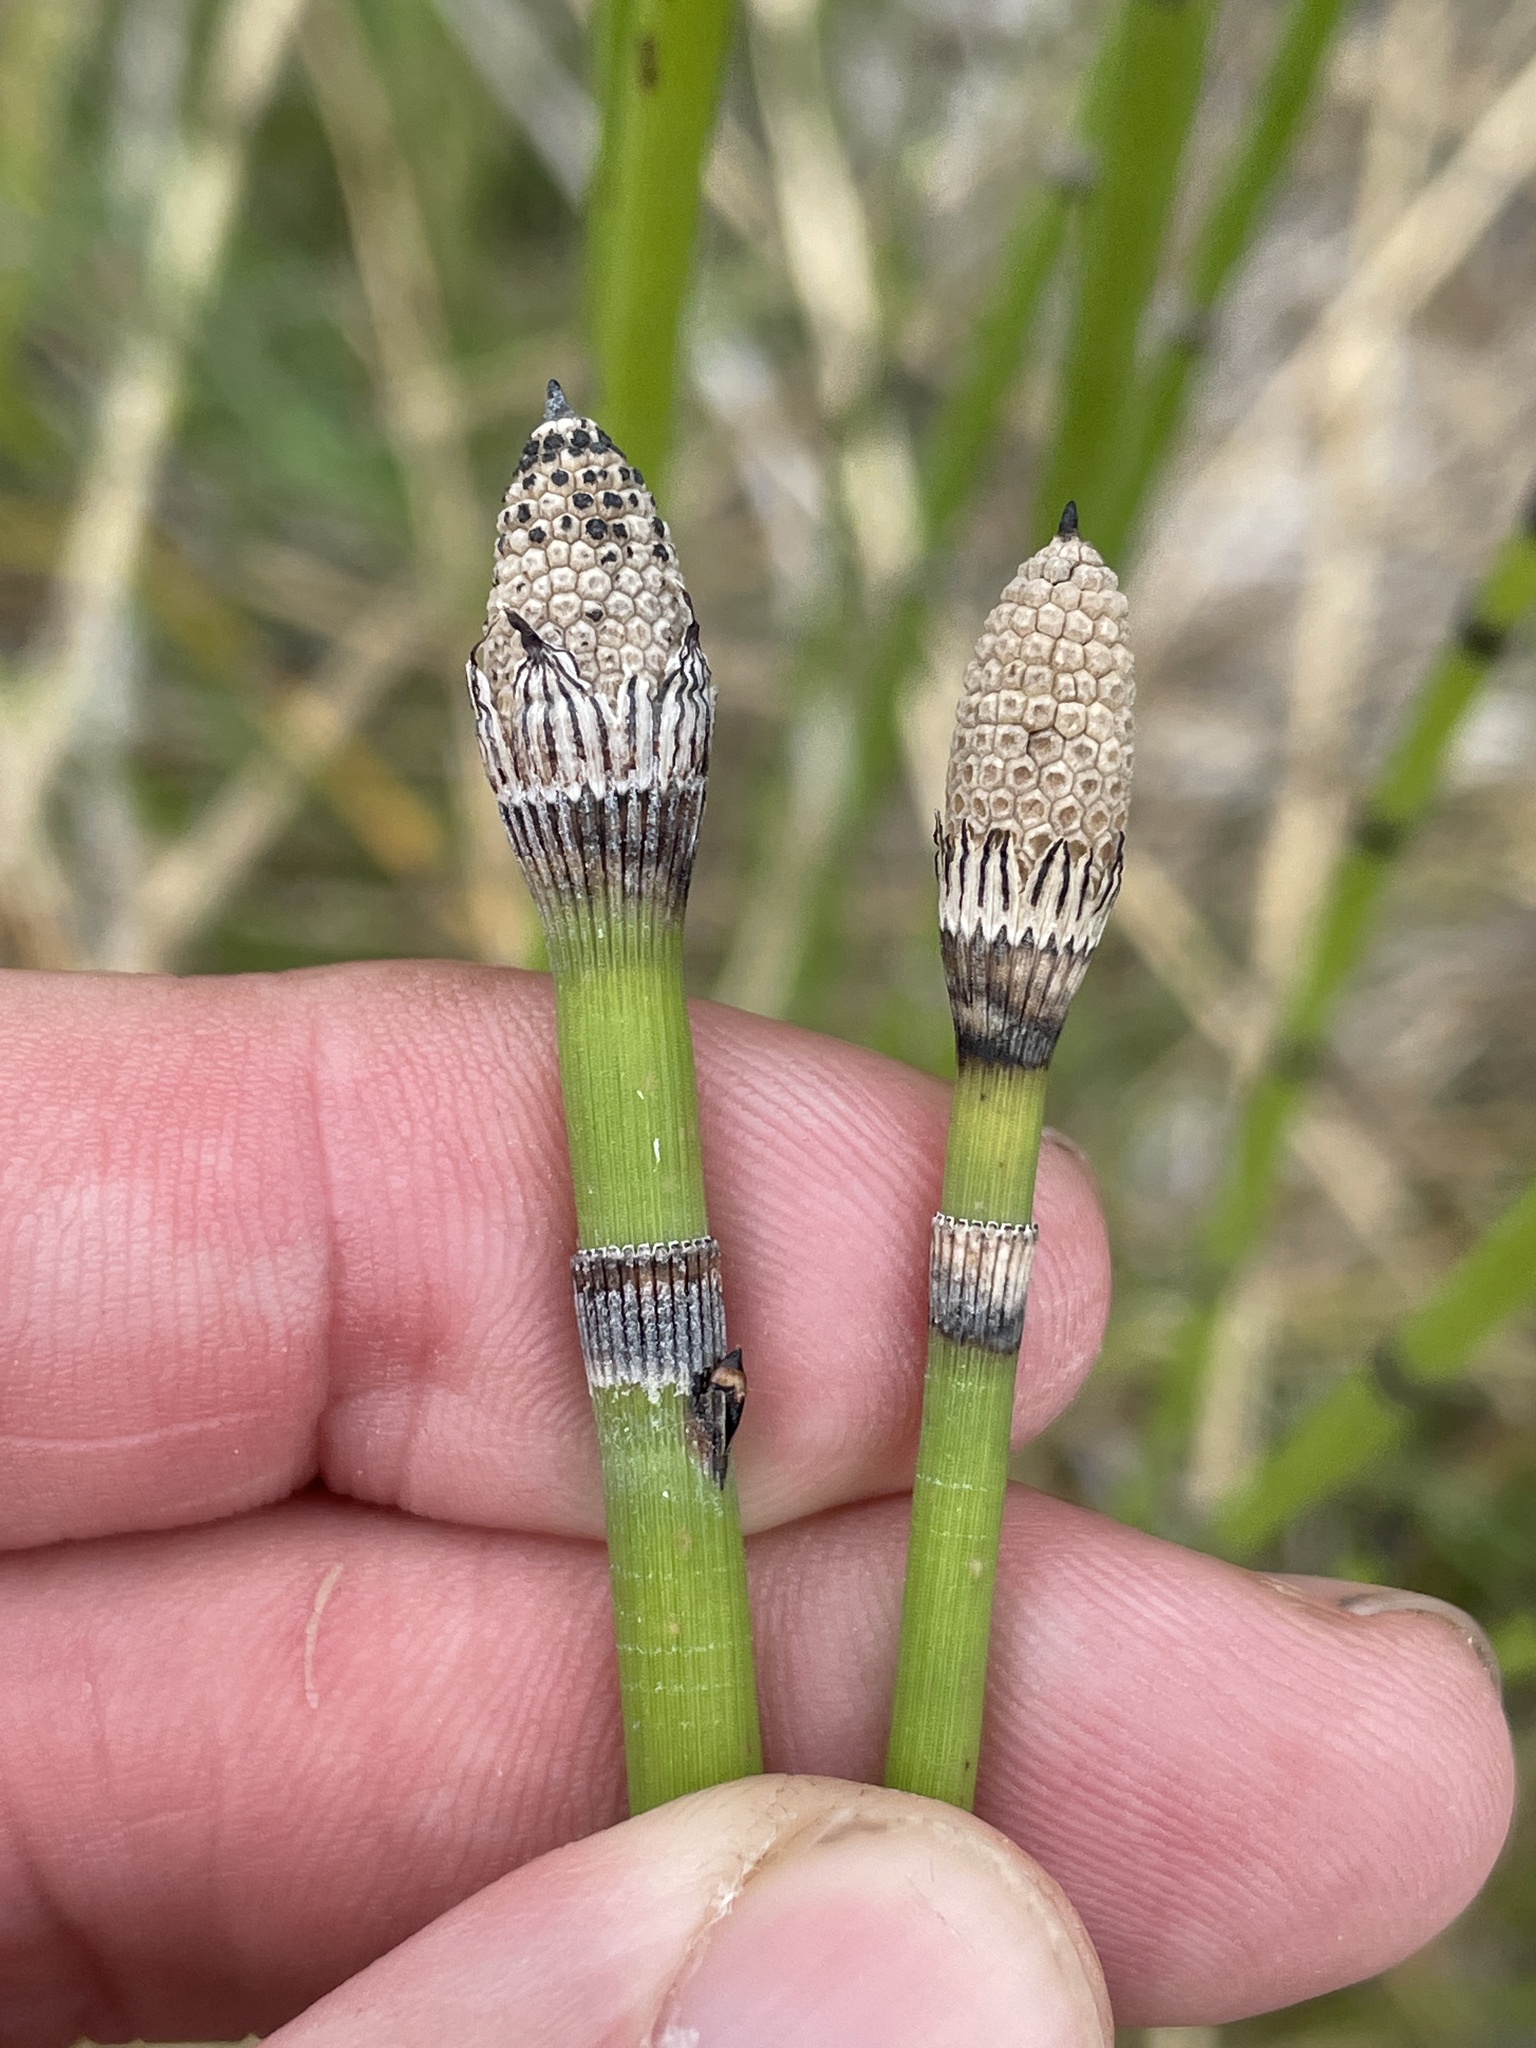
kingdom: Plantae
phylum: Tracheophyta
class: Polypodiopsida
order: Equisetales
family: Equisetaceae
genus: Equisetum
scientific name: Equisetum hyemale
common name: Rough horsetail
